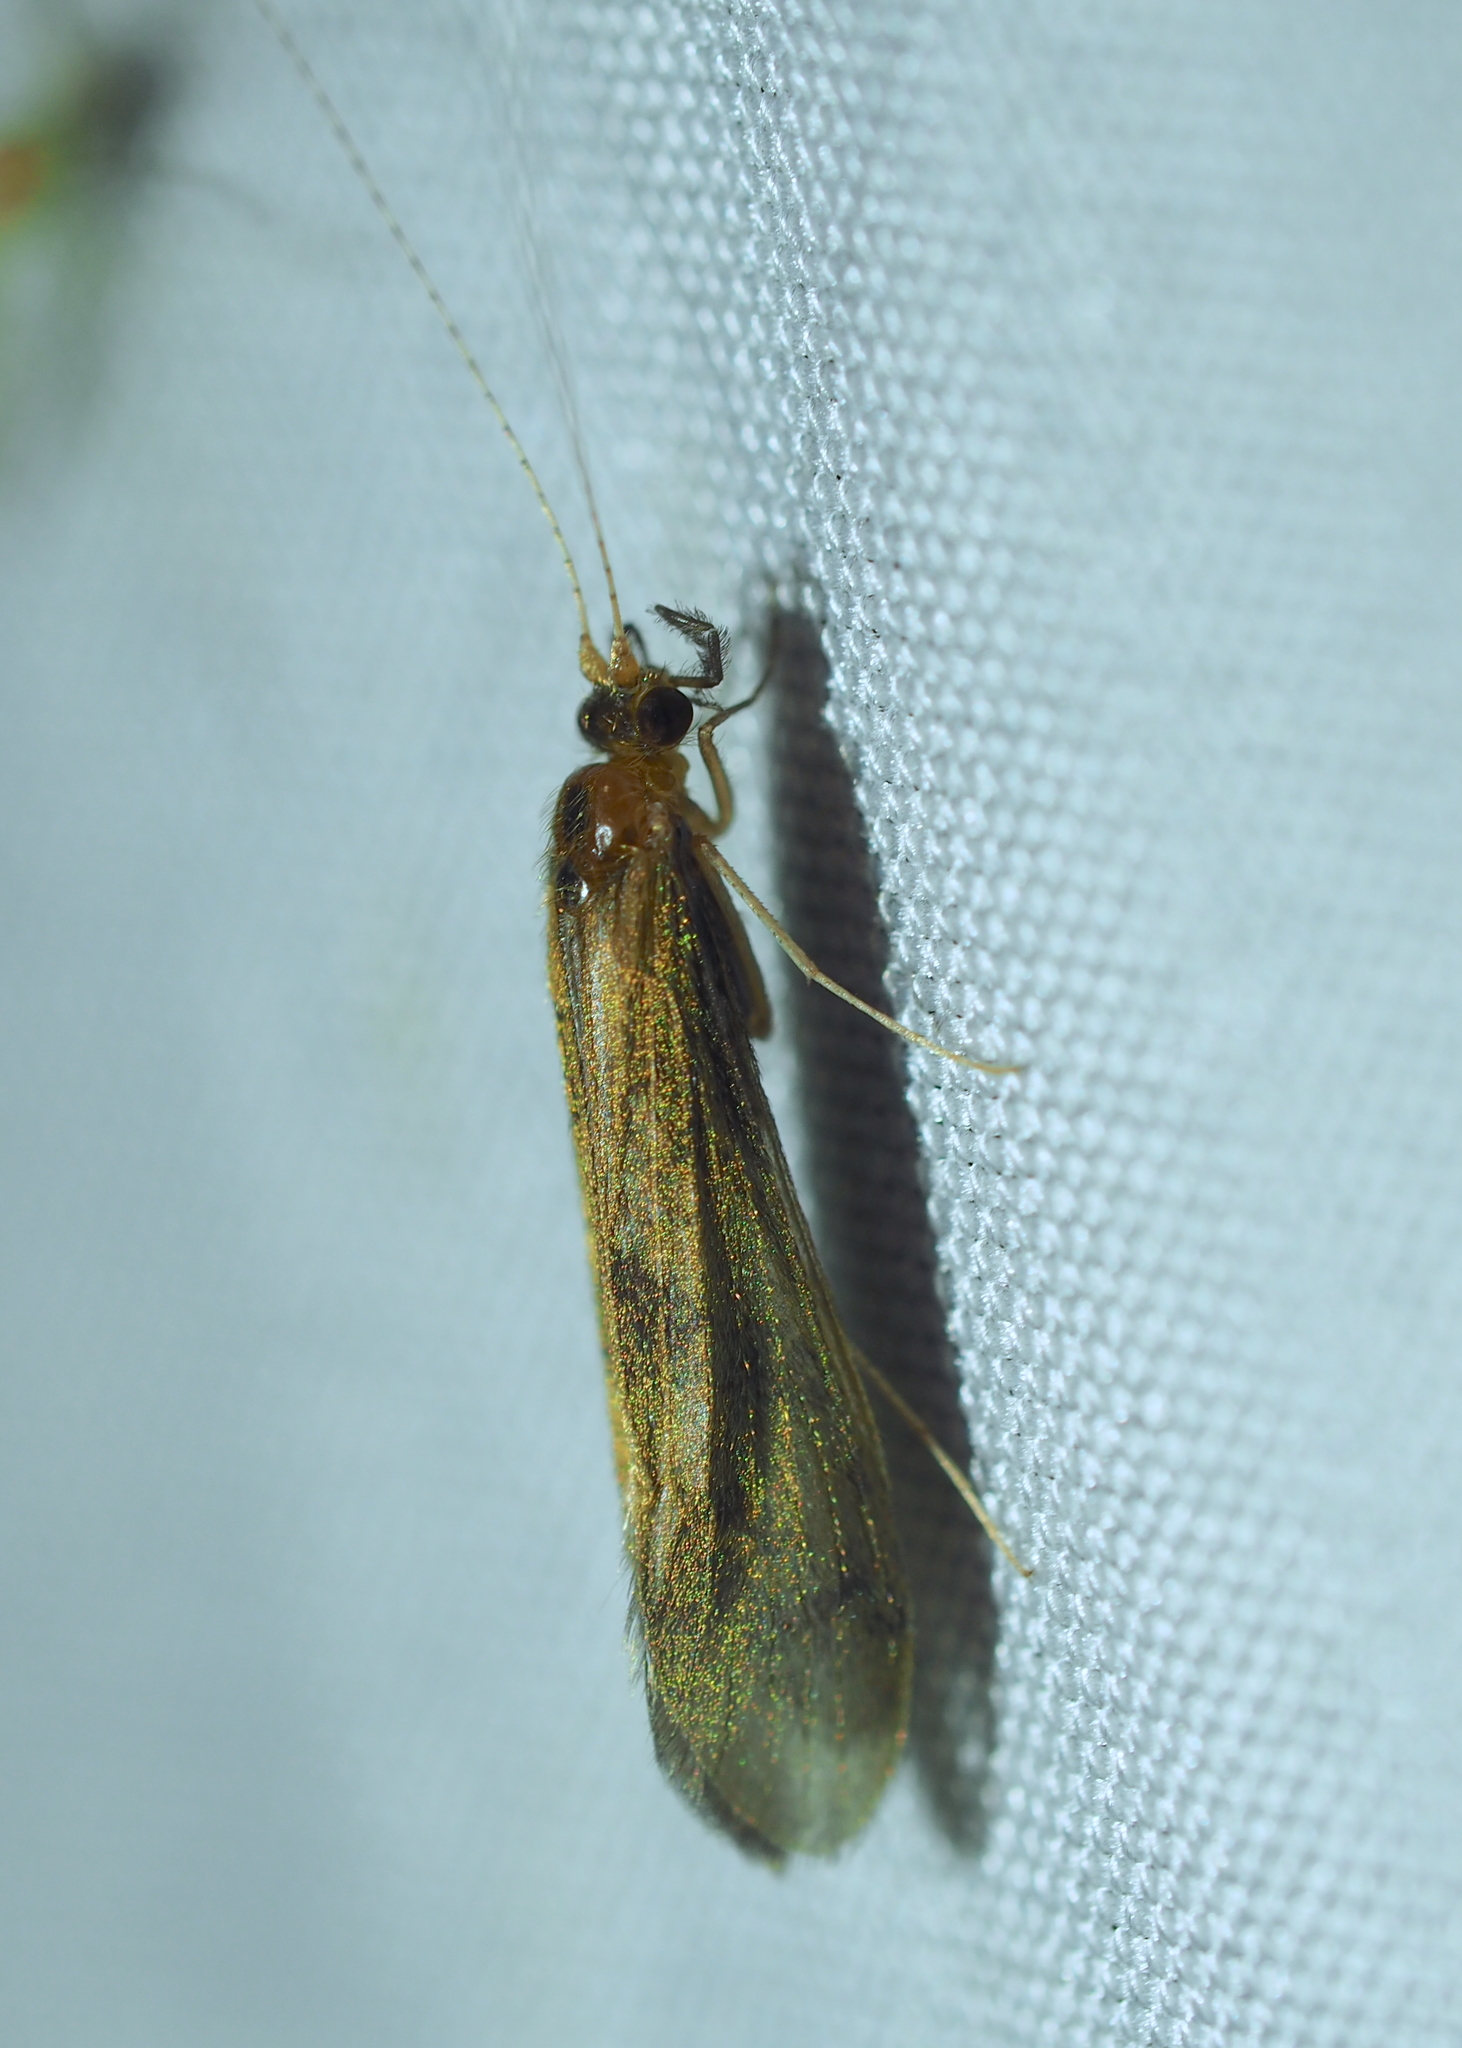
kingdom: Animalia
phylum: Arthropoda
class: Insecta
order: Trichoptera
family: Leptoceridae
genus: Mystacides
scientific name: Mystacides longicornis
